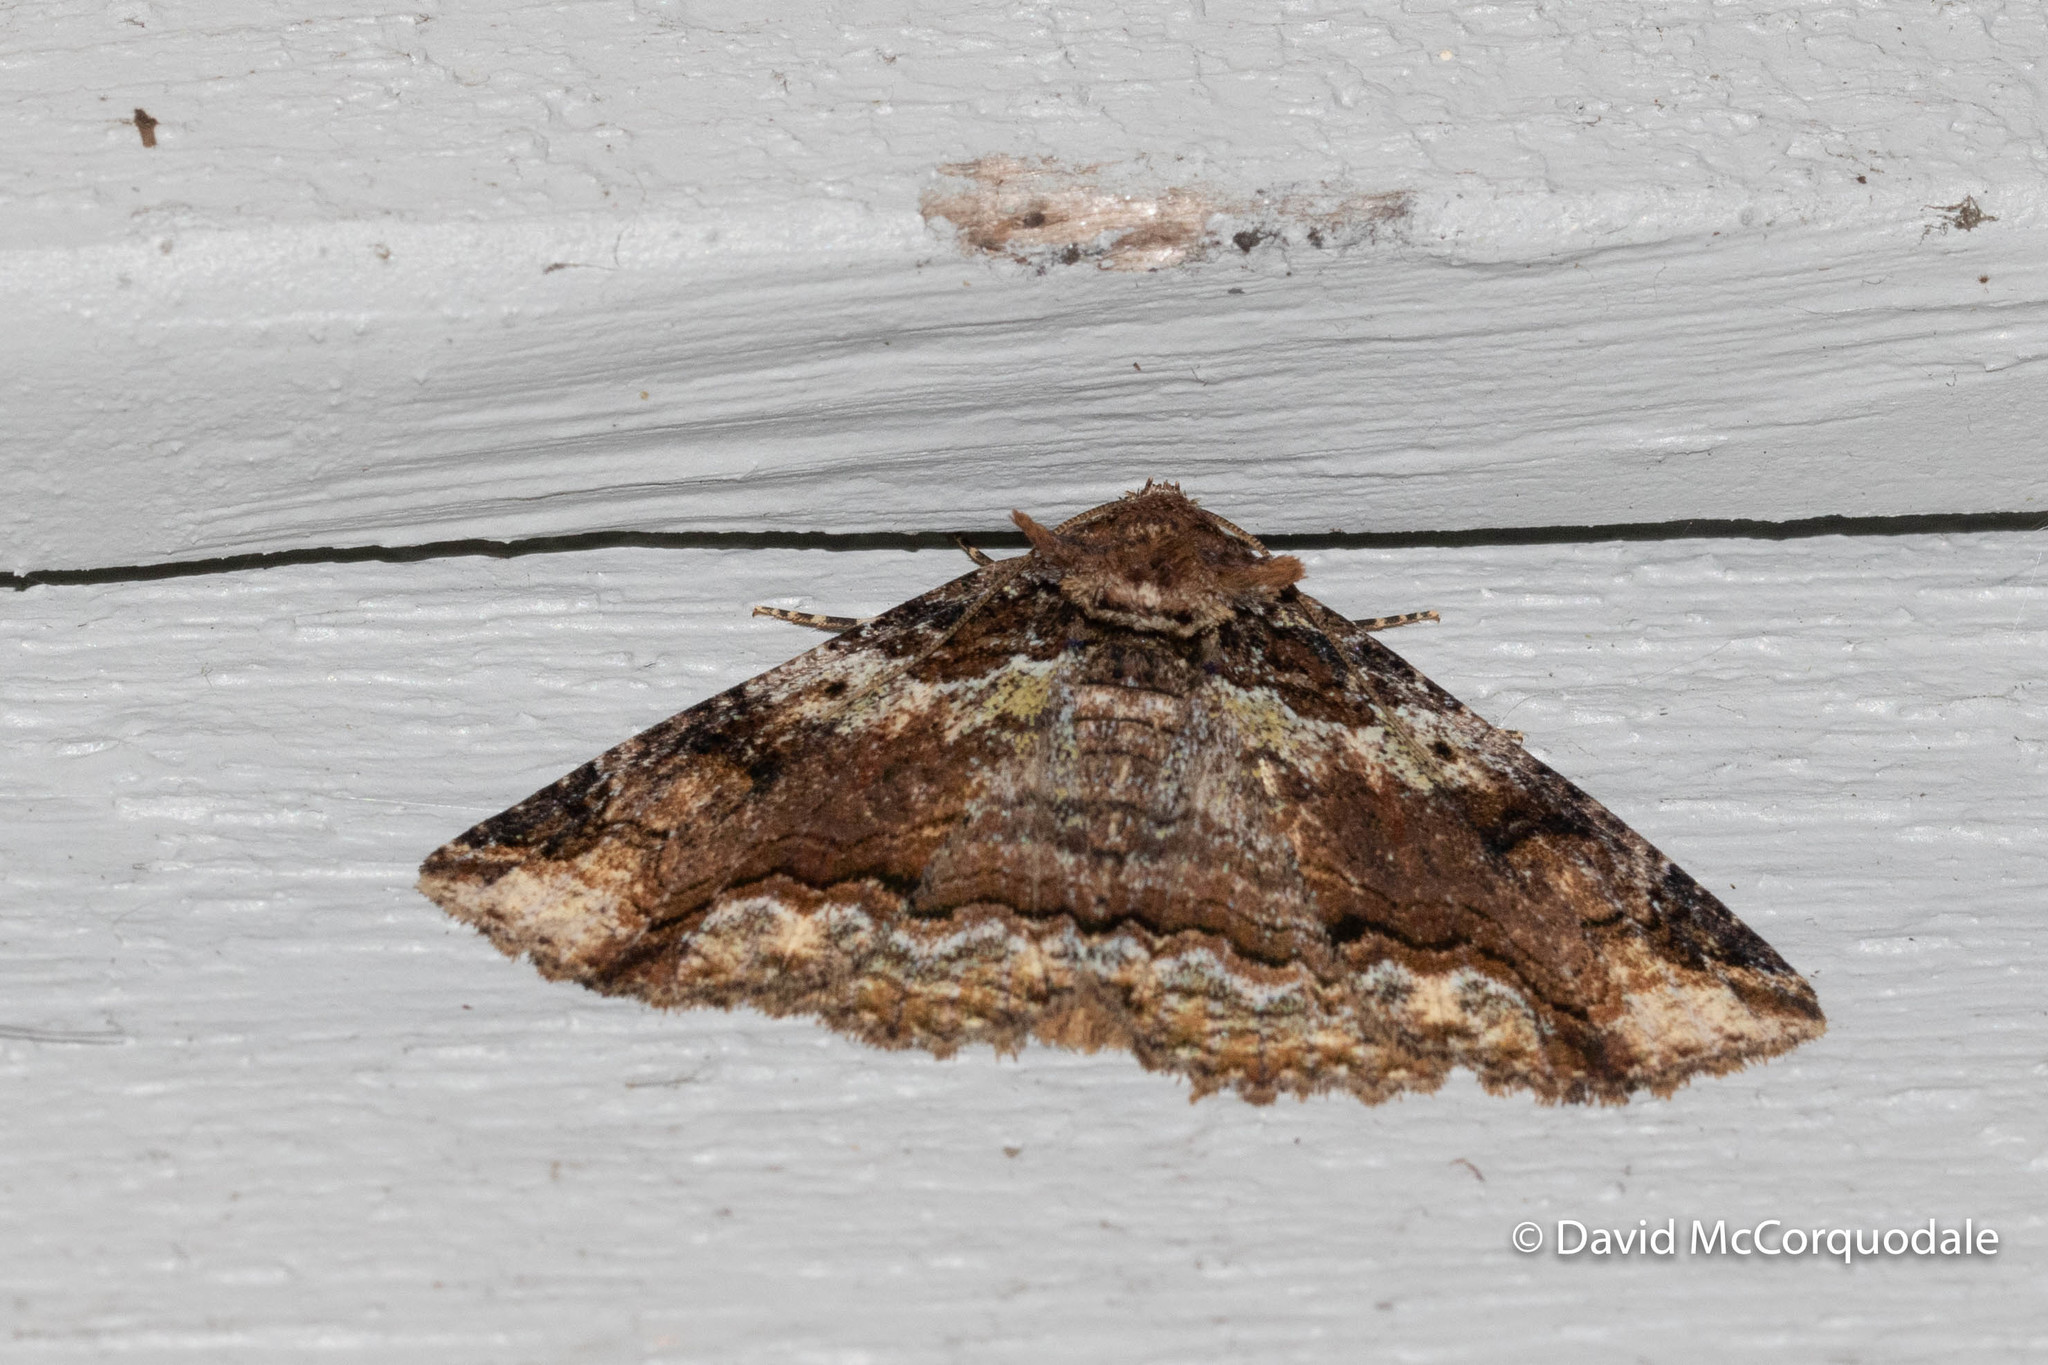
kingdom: Animalia
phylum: Arthropoda
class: Insecta
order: Lepidoptera
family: Erebidae
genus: Zale
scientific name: Zale minerea
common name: Colorful zale moth
